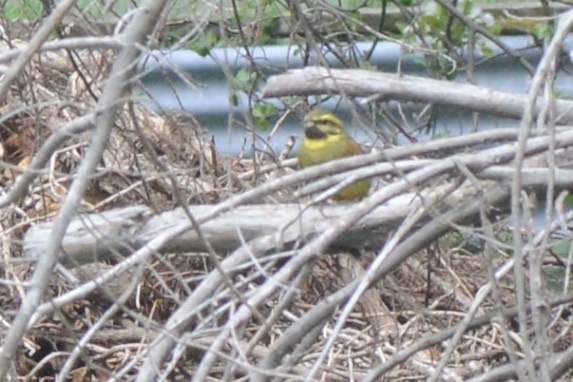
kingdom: Animalia
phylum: Chordata
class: Aves
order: Passeriformes
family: Emberizidae
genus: Emberiza
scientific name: Emberiza cirlus
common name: Cirl bunting
